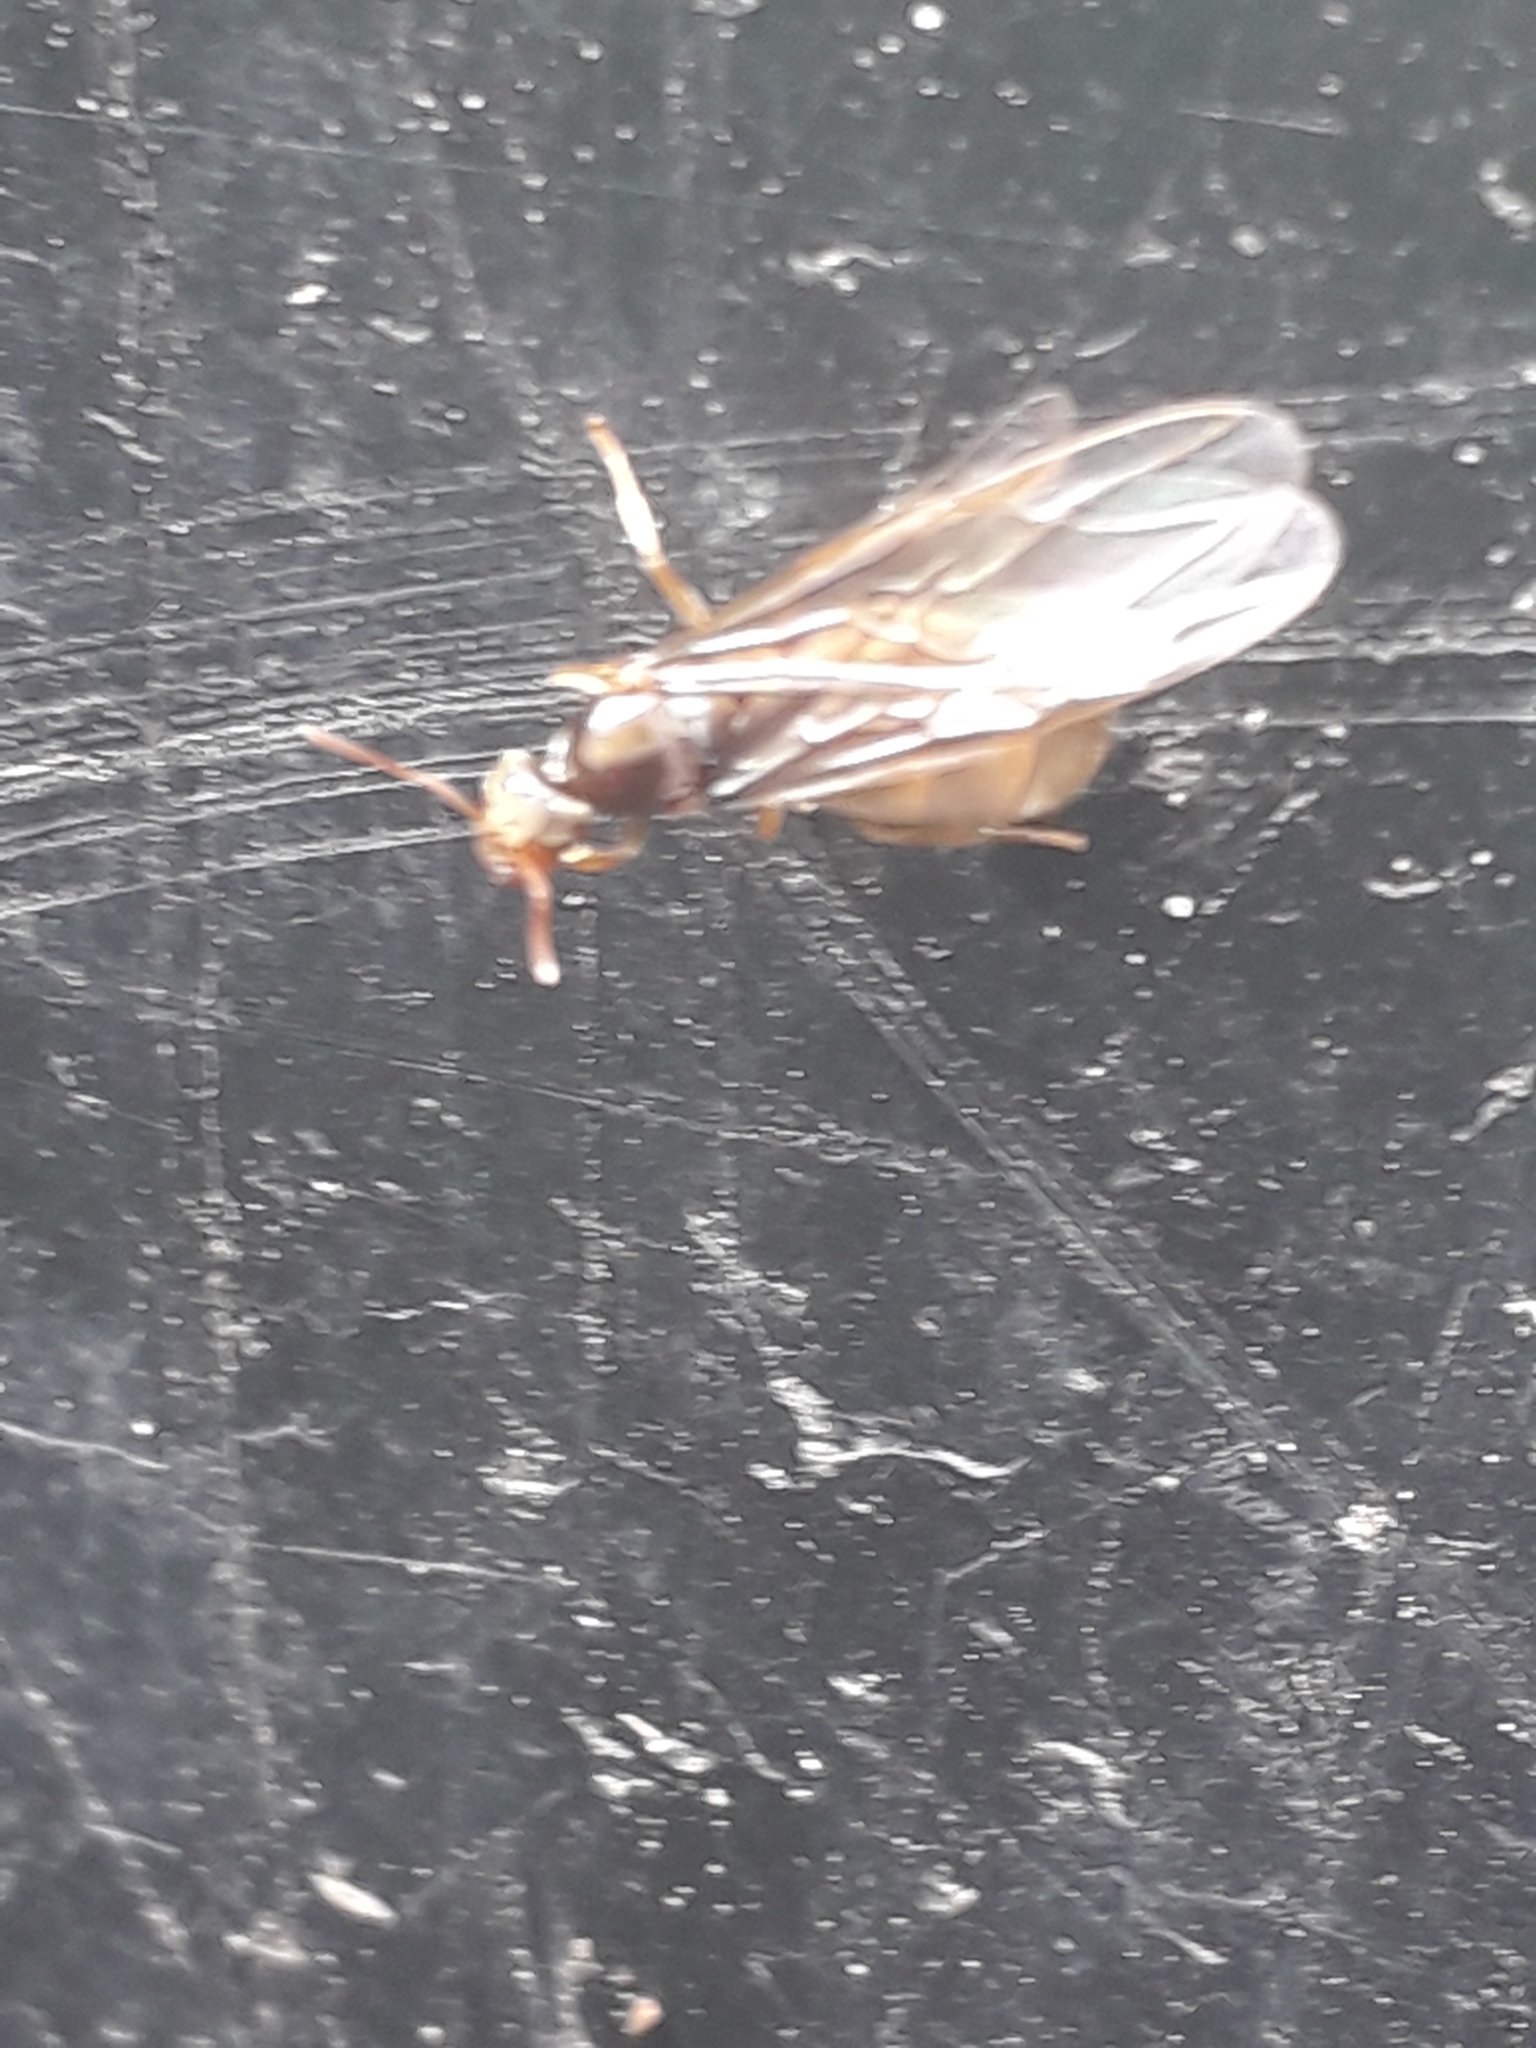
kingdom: Animalia
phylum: Arthropoda
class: Insecta
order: Hymenoptera
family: Formicidae
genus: Lasius
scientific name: Lasius flavus
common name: Blond field ant
